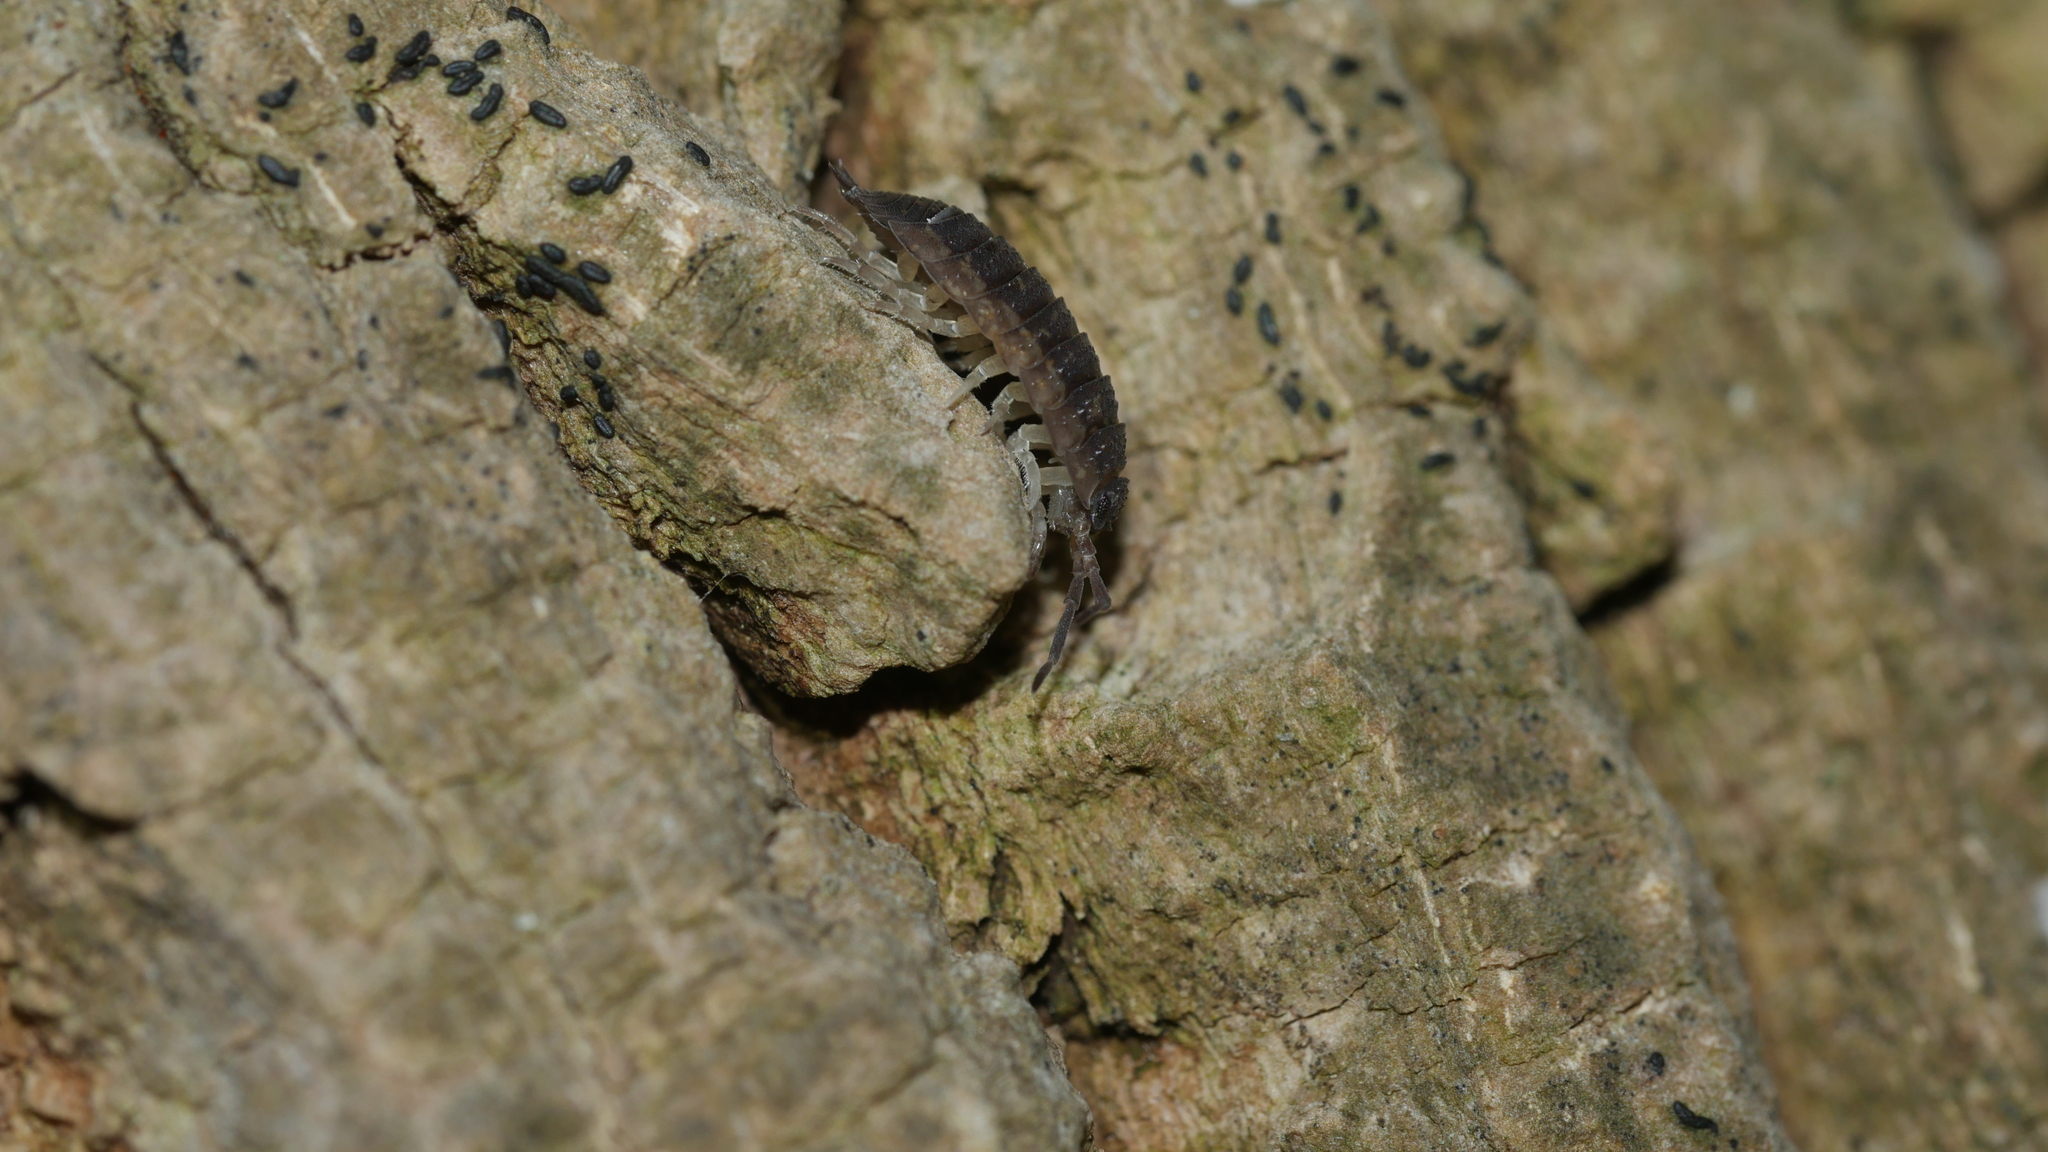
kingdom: Animalia
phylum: Arthropoda
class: Malacostraca
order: Isopoda
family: Porcellionidae
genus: Porcellio
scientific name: Porcellio scaber
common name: Common rough woodlouse
